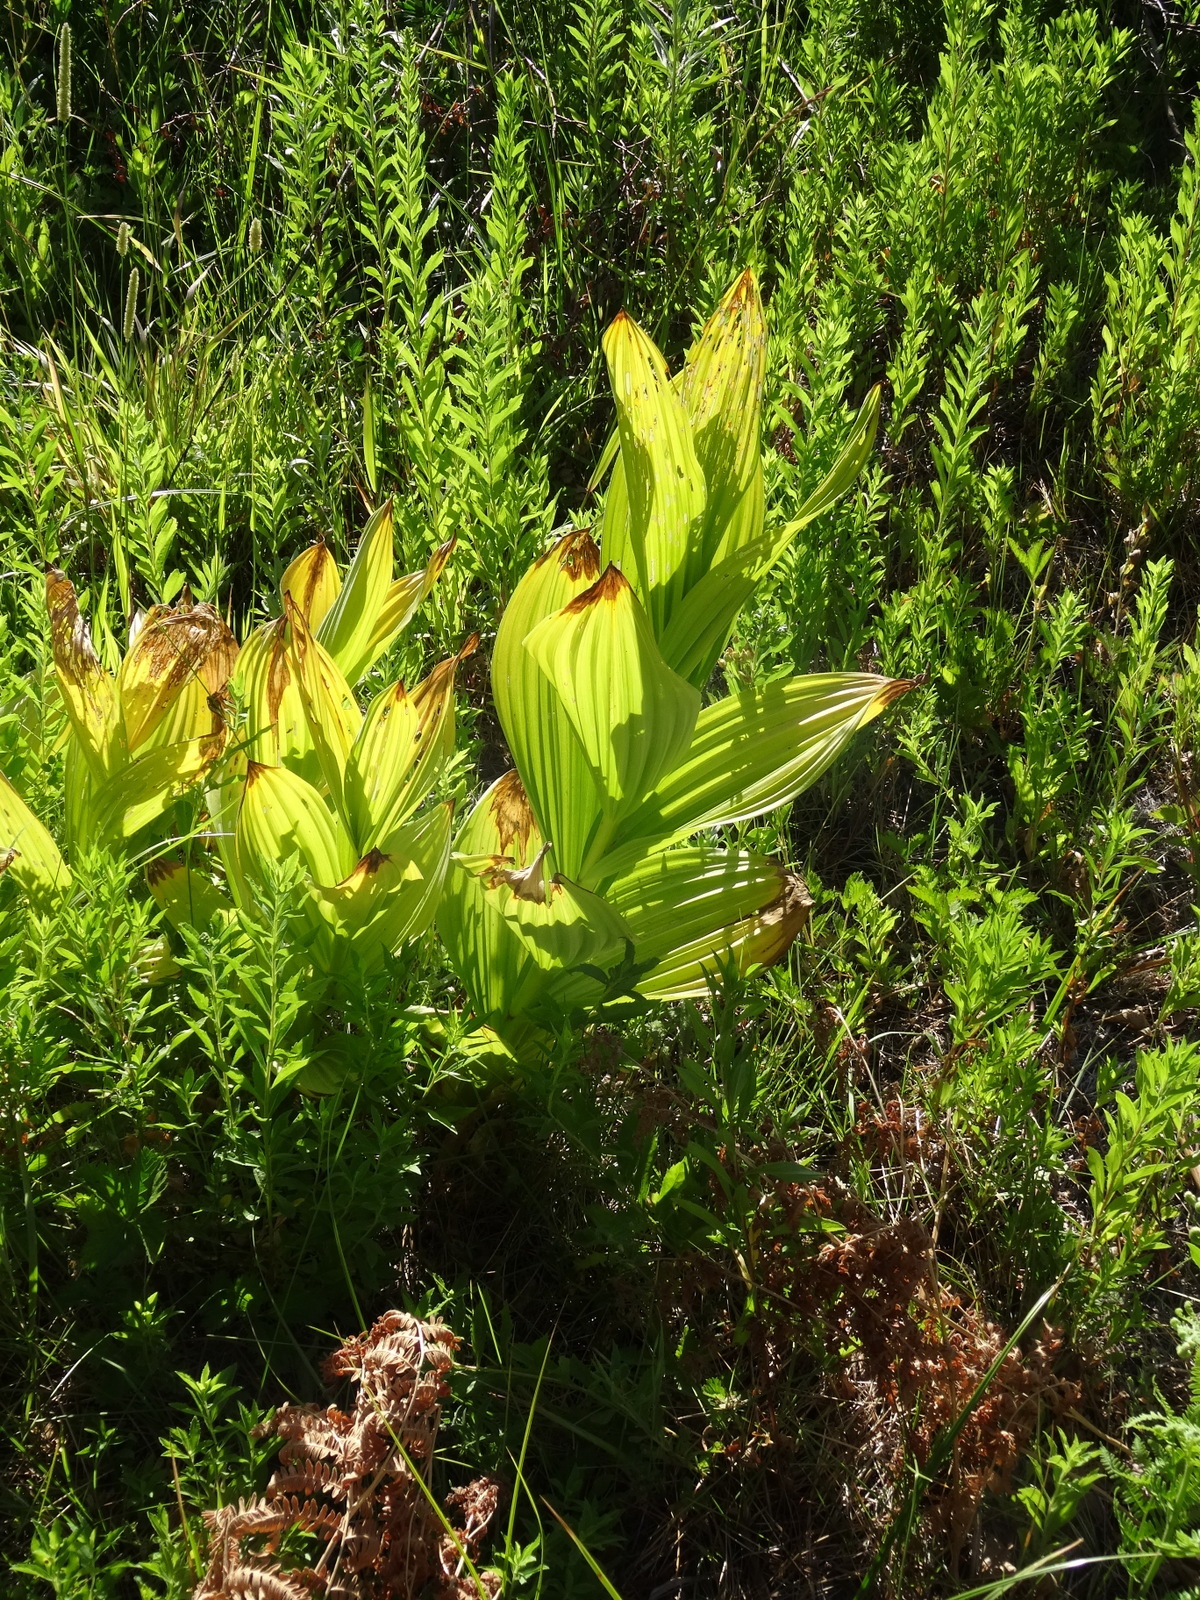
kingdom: Plantae
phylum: Tracheophyta
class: Liliopsida
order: Liliales
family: Melanthiaceae
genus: Veratrum
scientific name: Veratrum californicum
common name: California veratrum
